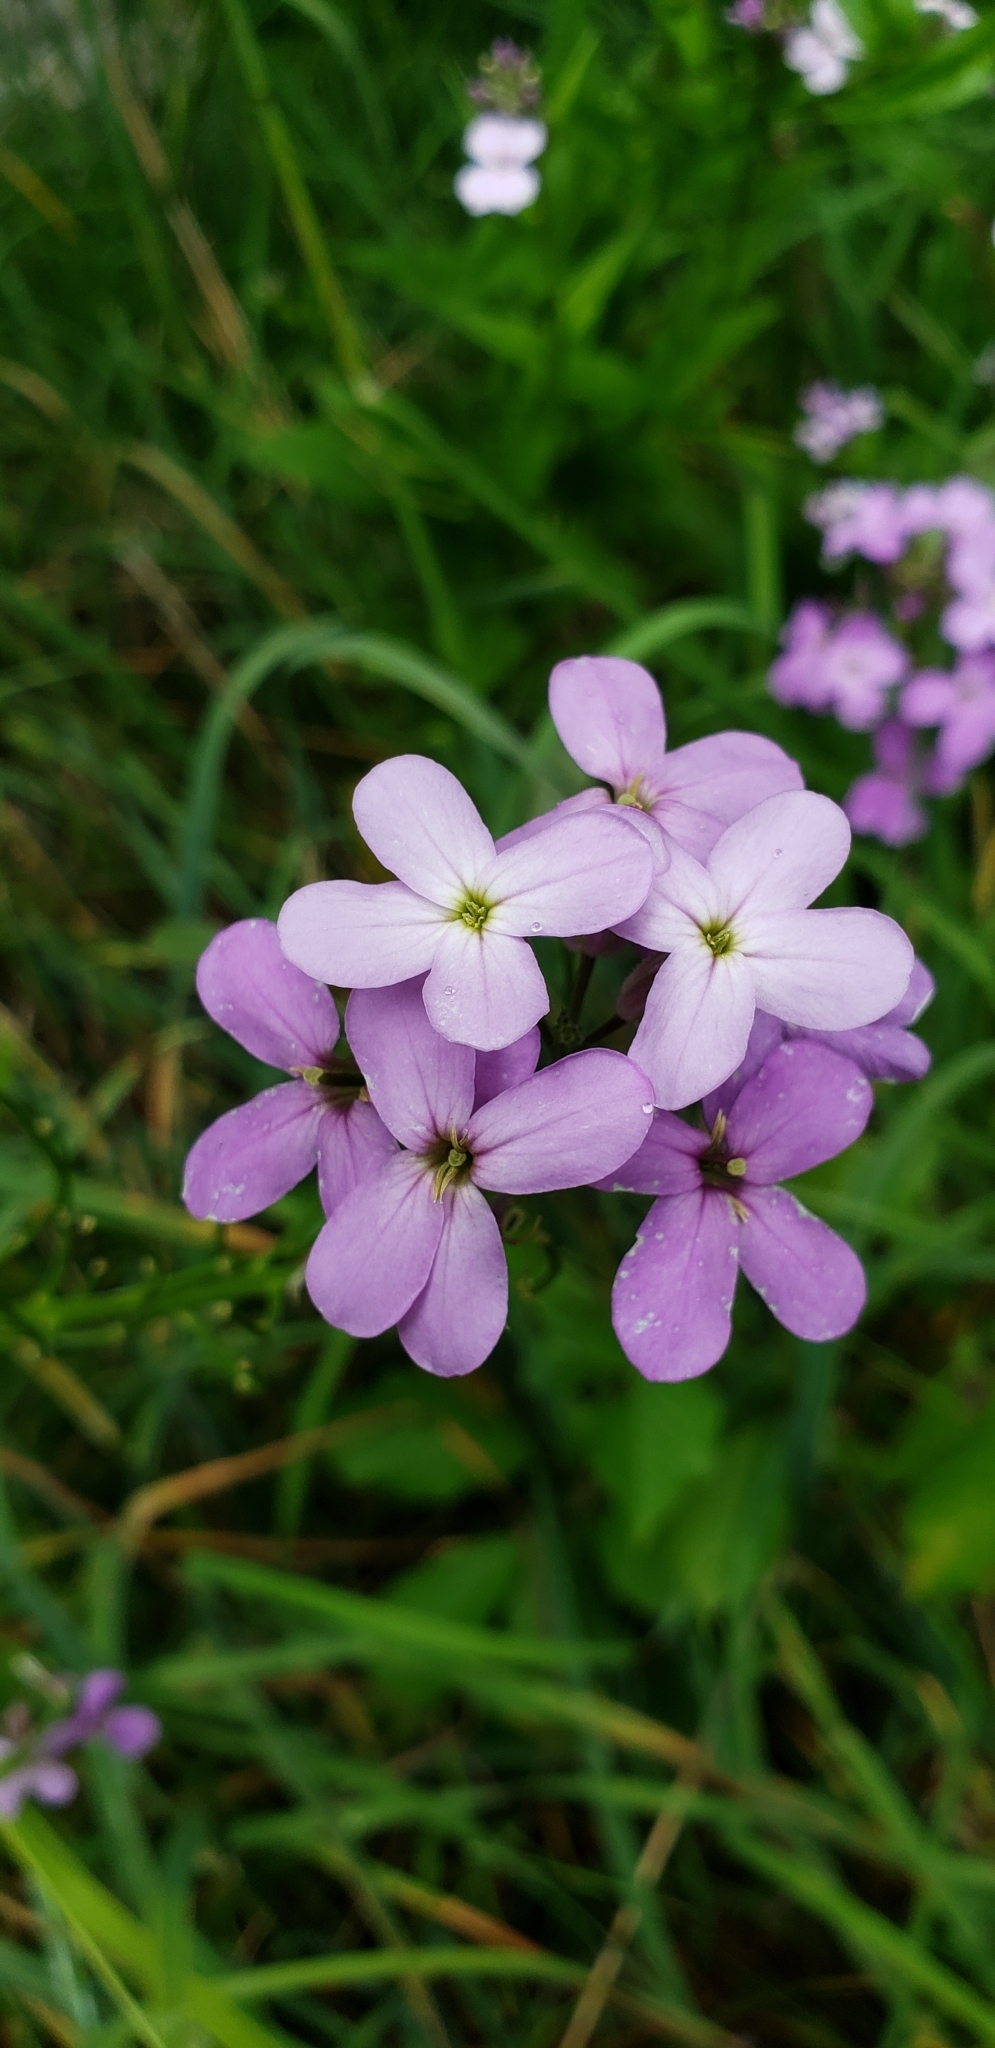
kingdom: Plantae
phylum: Tracheophyta
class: Magnoliopsida
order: Brassicales
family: Brassicaceae
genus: Hesperis
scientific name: Hesperis matronalis
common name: Dame's-violet
